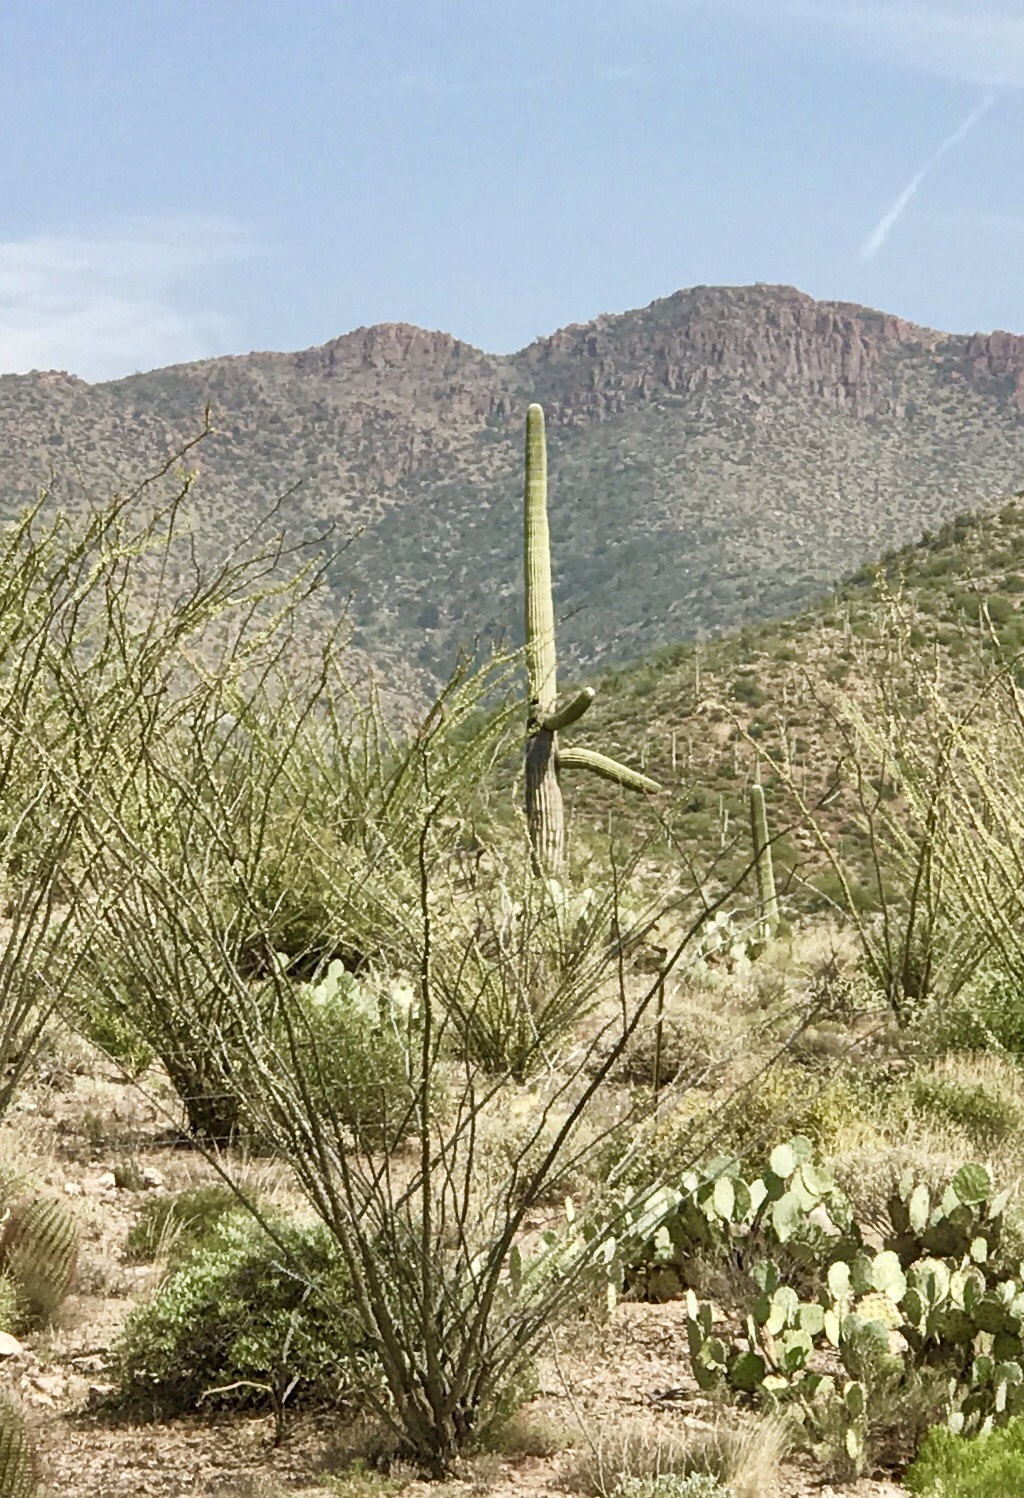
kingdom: Plantae
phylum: Tracheophyta
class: Magnoliopsida
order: Caryophyllales
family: Cactaceae
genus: Carnegiea
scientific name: Carnegiea gigantea
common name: Saguaro
